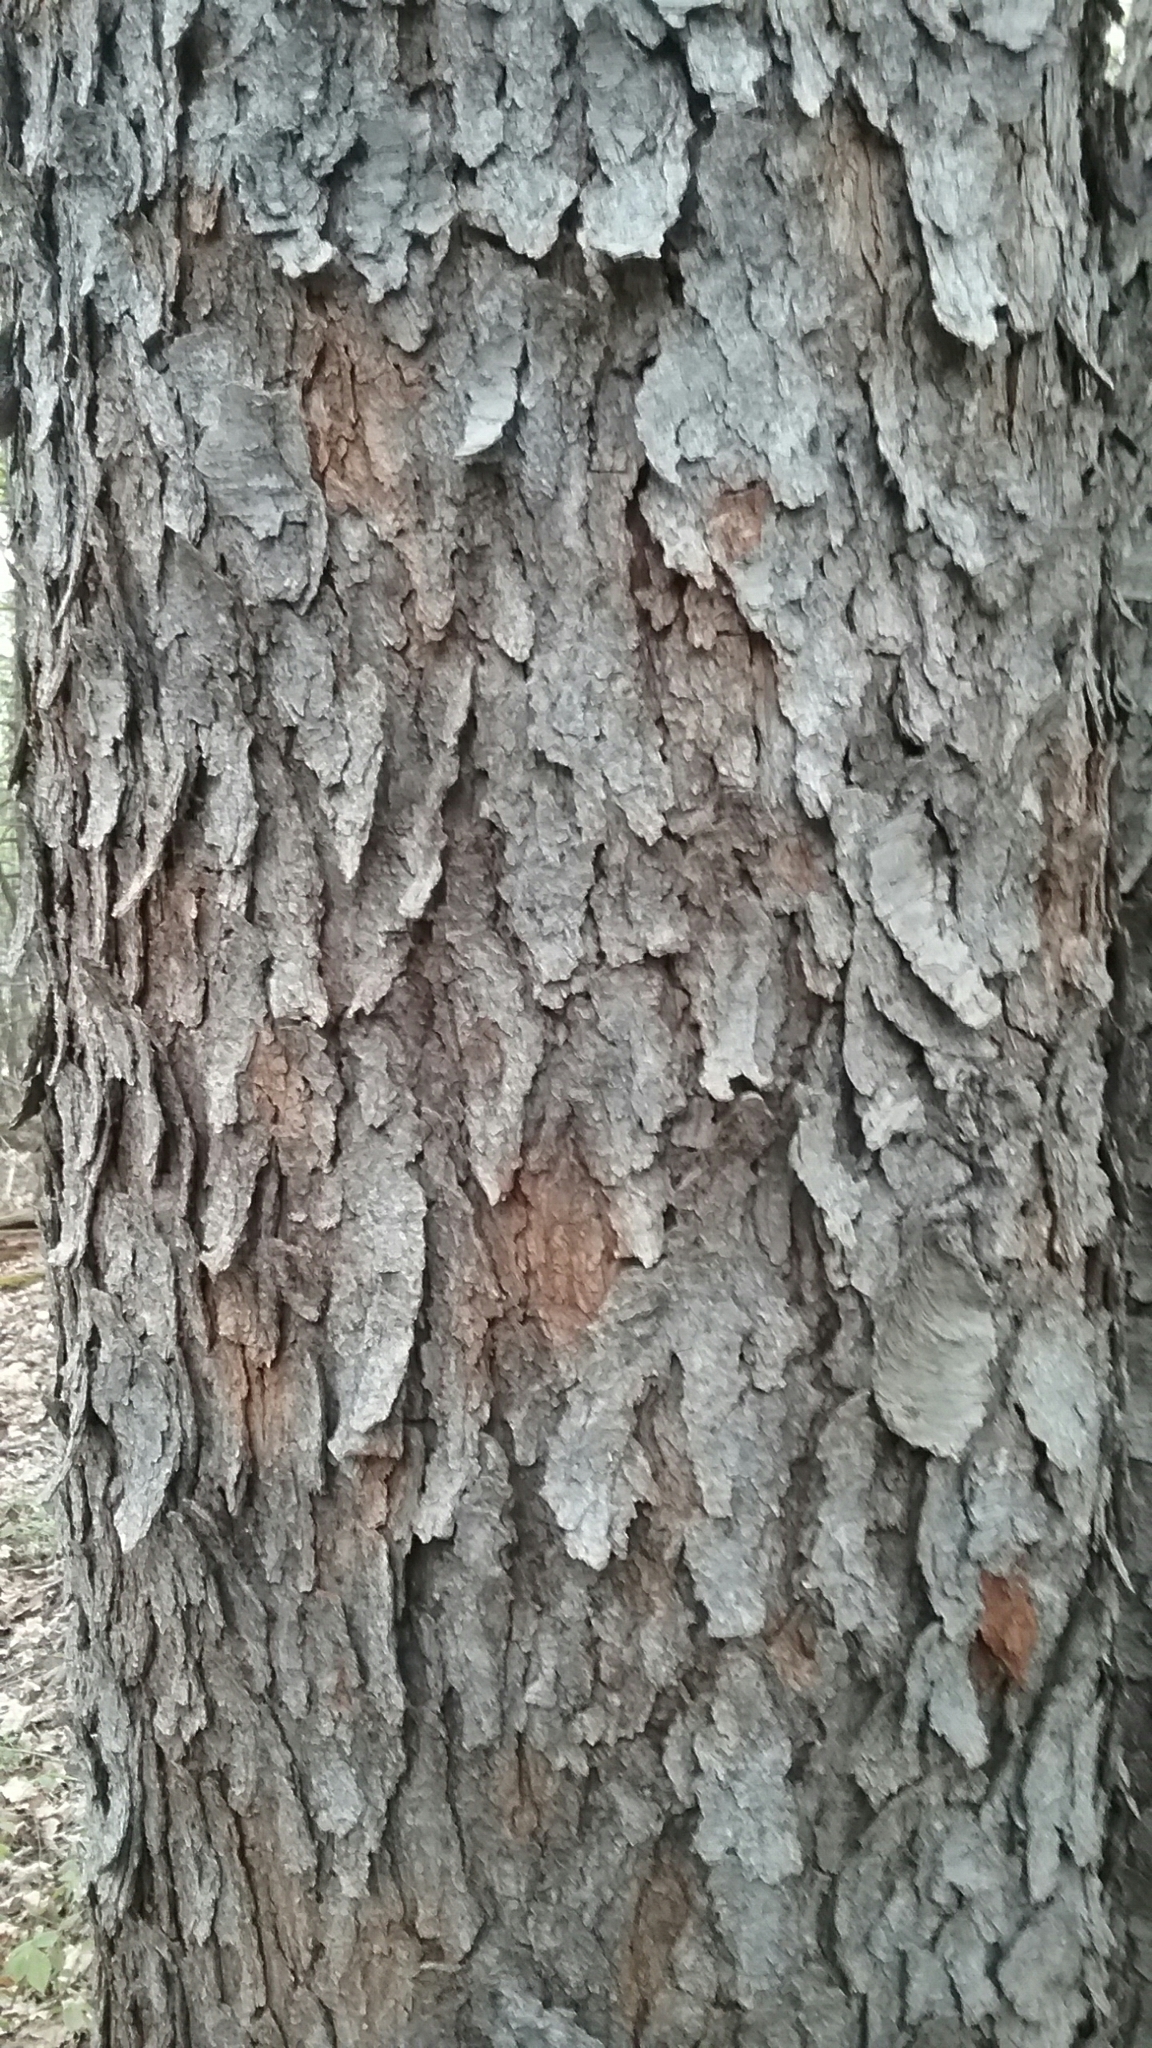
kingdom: Plantae
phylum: Tracheophyta
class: Magnoliopsida
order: Rosales
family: Rosaceae
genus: Prunus
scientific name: Prunus serotina
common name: Black cherry
